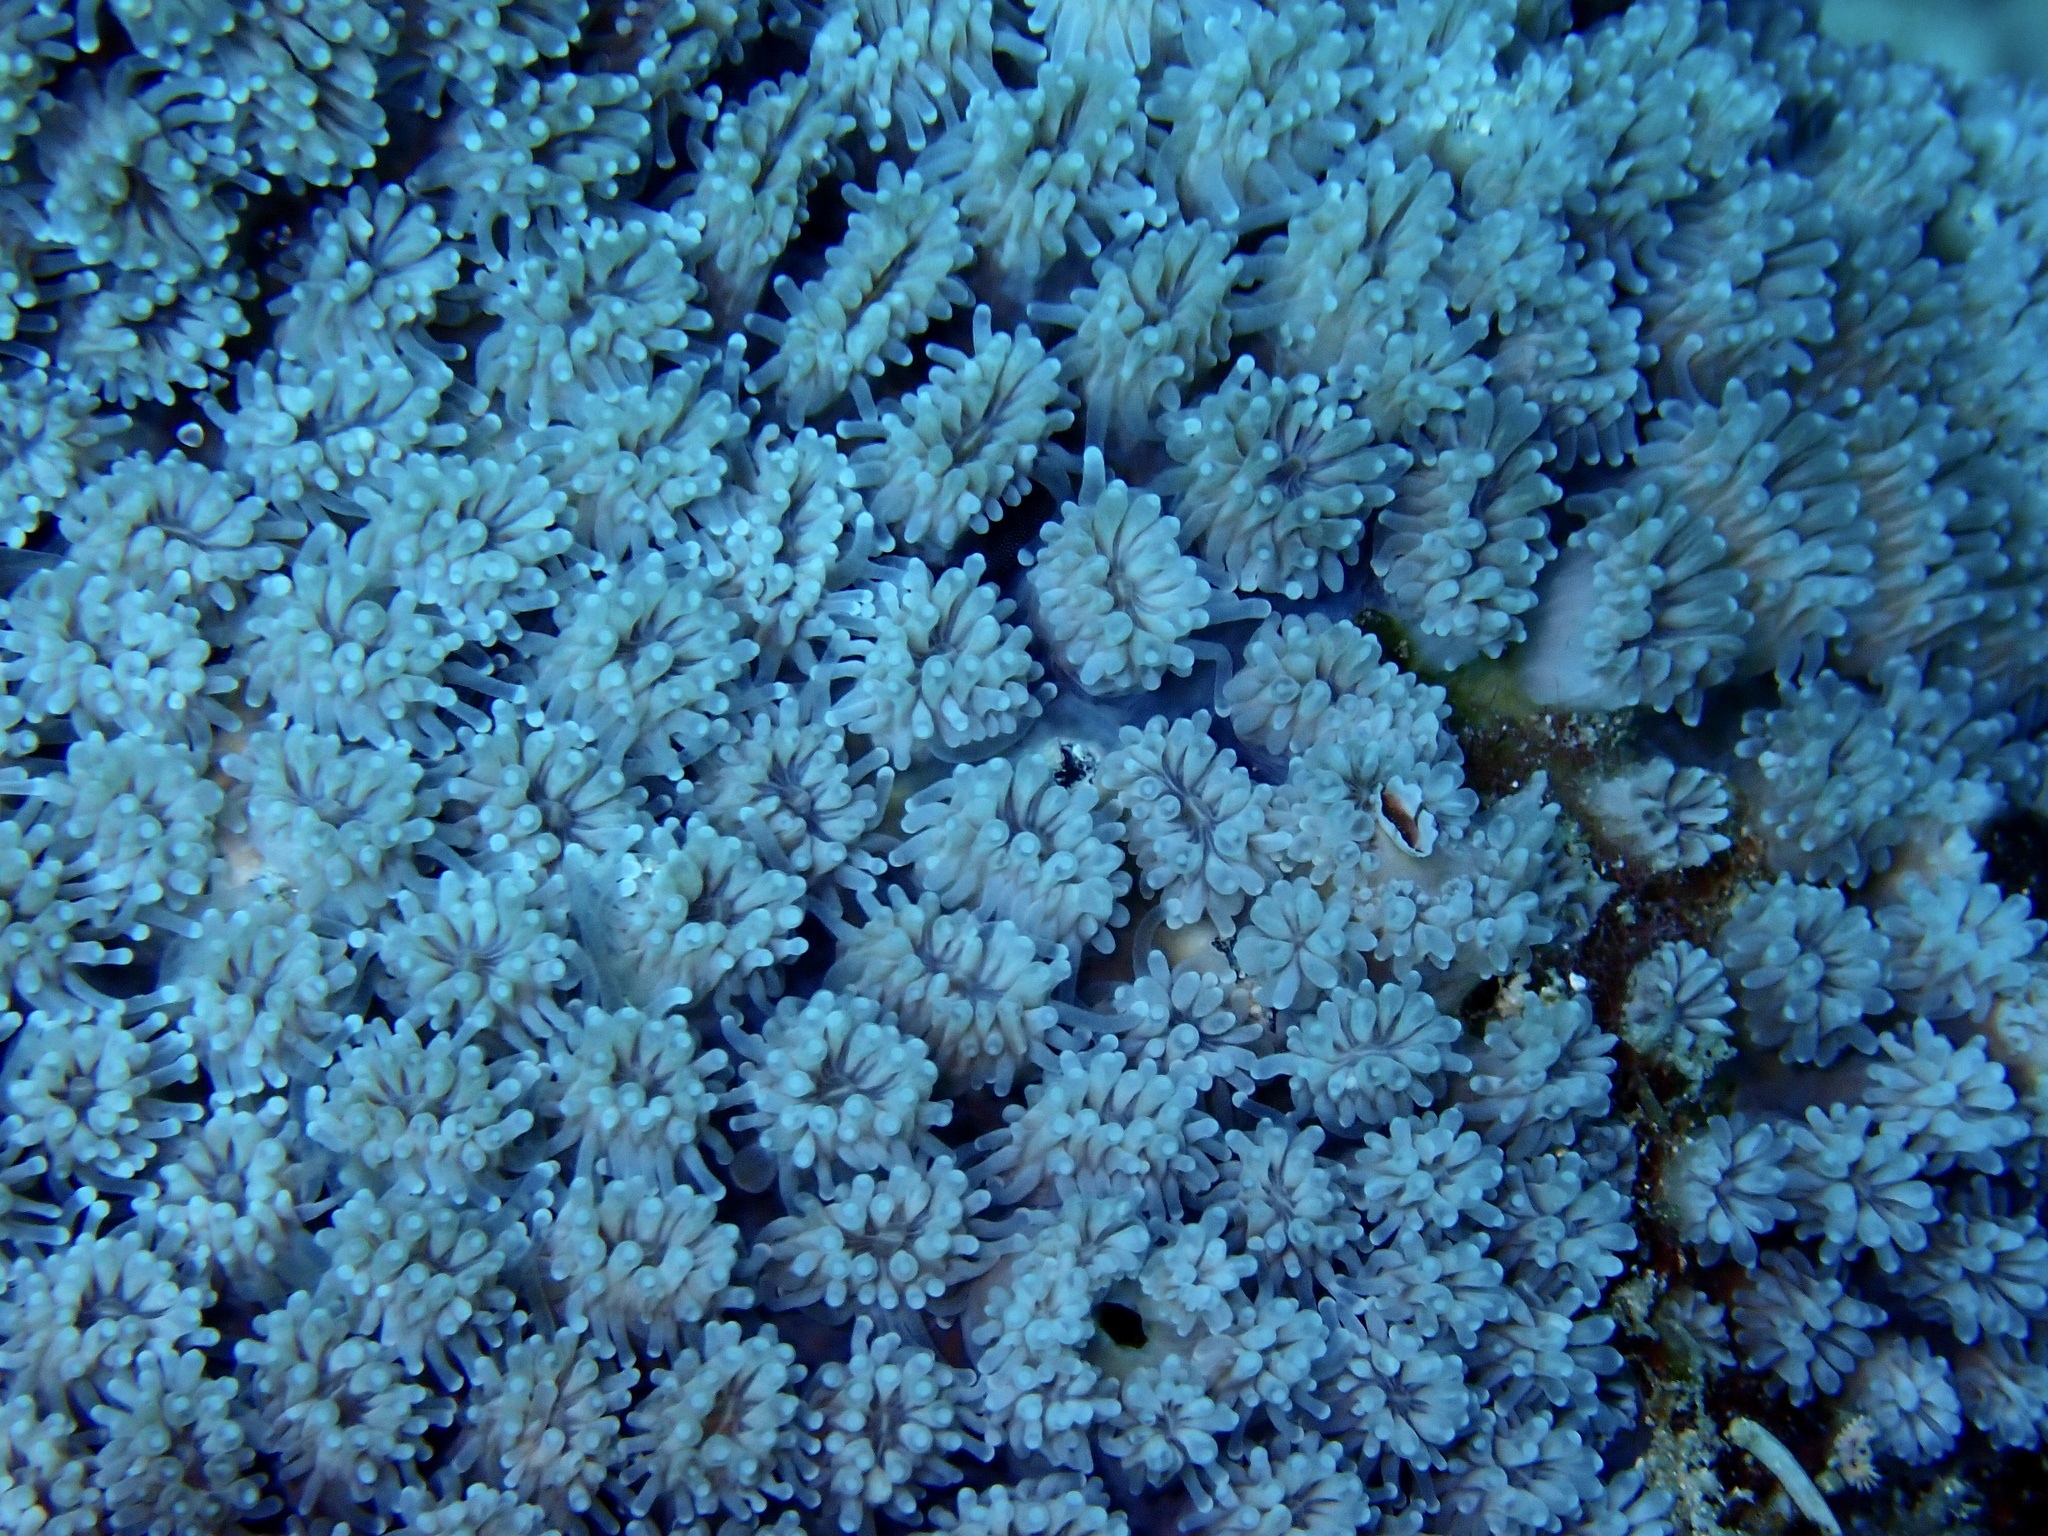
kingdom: Animalia
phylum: Cnidaria
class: Anthozoa
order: Scleractinia
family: Euphylliidae
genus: Galaxea
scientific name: Galaxea fascicularis
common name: Octopus coral
